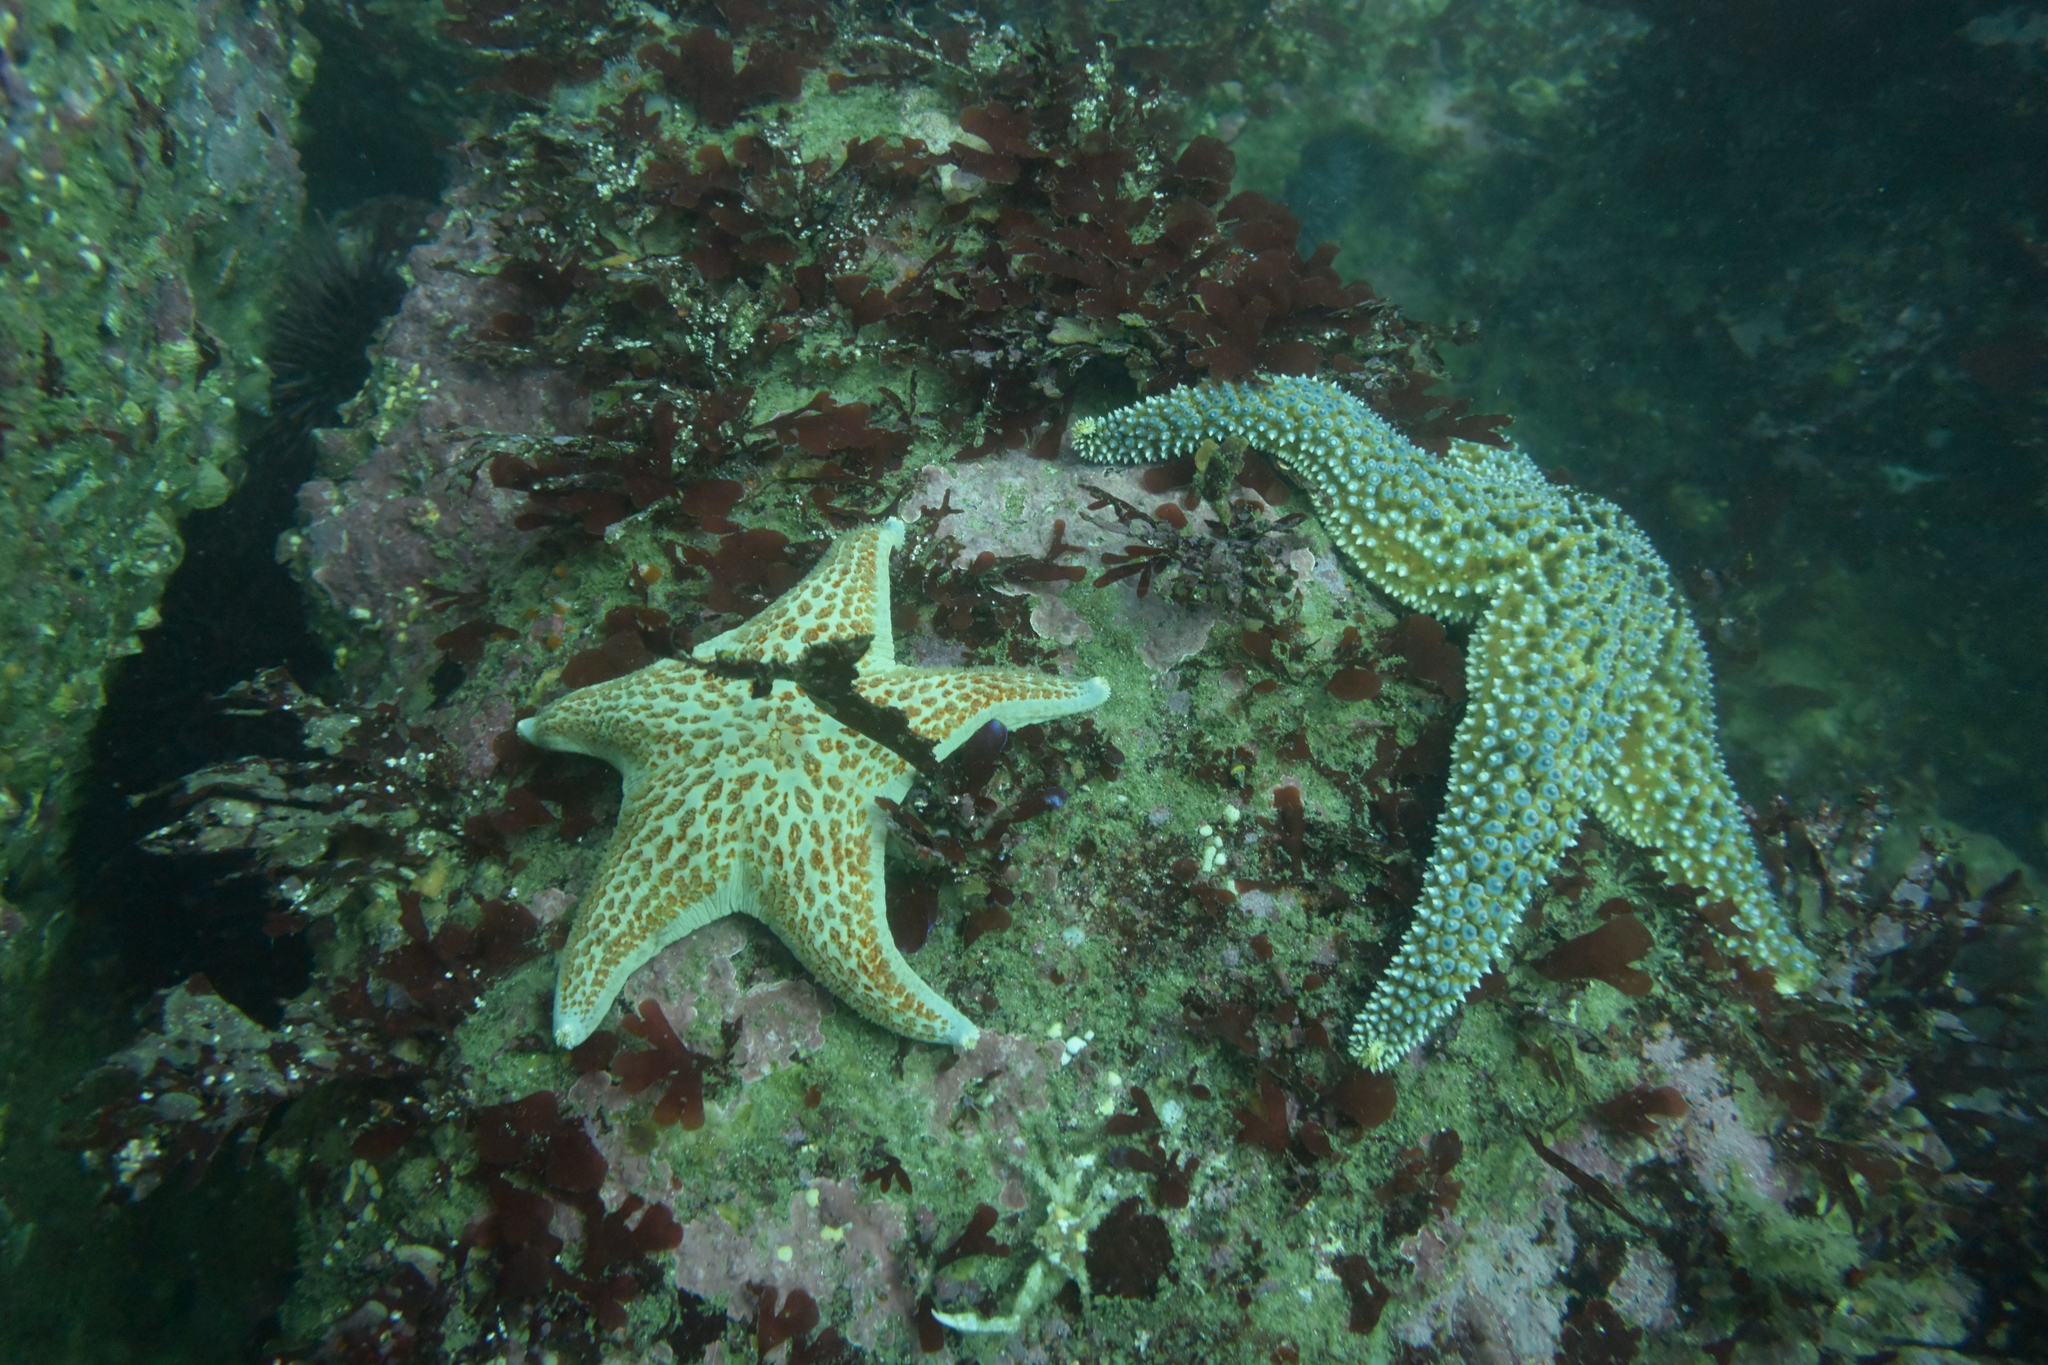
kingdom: Animalia
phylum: Echinodermata
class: Asteroidea
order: Forcipulatida
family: Asteriidae
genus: Pisaster
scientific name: Pisaster giganteus
